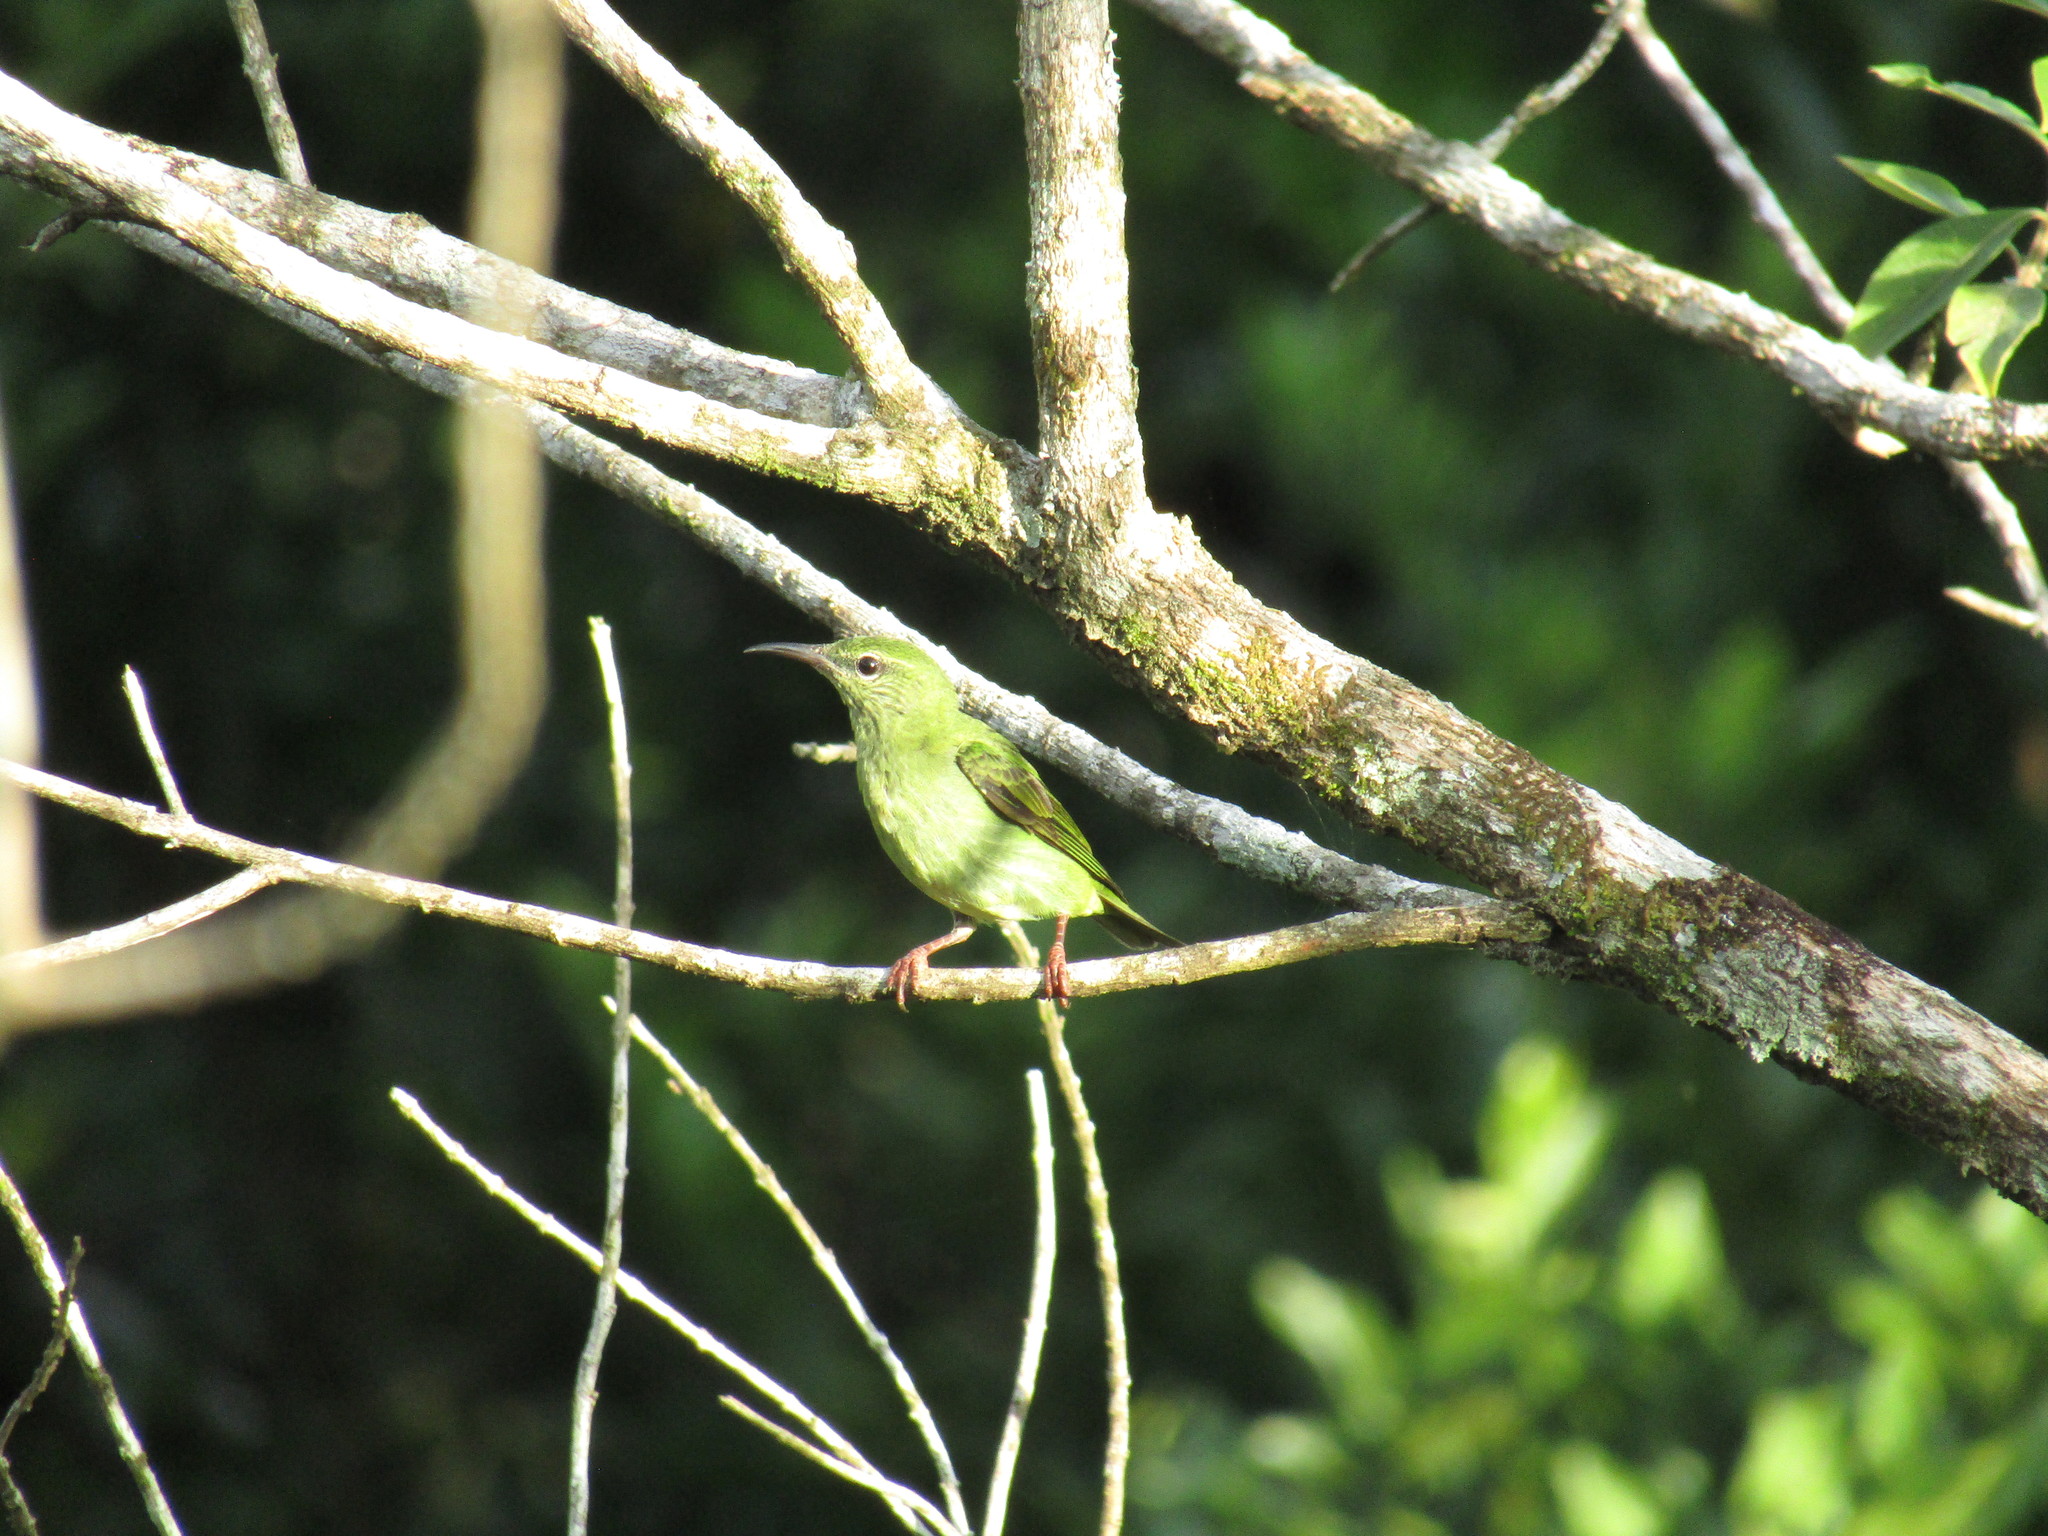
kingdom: Animalia
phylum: Chordata
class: Aves
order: Passeriformes
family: Thraupidae
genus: Cyanerpes
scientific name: Cyanerpes cyaneus
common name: Red-legged honeycreeper
